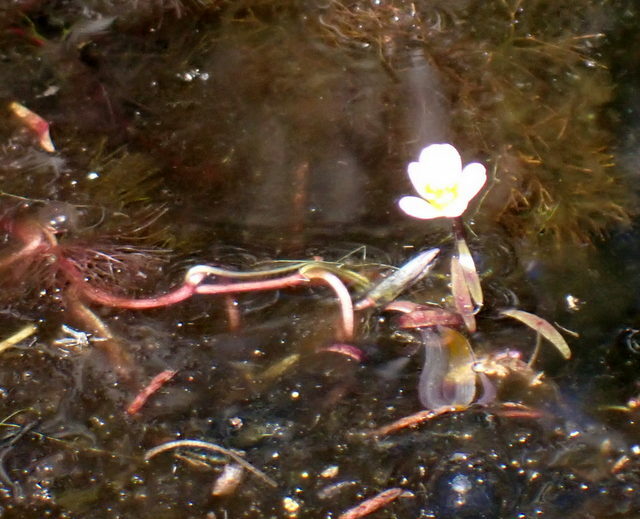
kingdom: Plantae
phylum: Tracheophyta
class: Magnoliopsida
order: Nymphaeales
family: Cabombaceae
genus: Cabomba
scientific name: Cabomba caroliniana
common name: Fanwort
